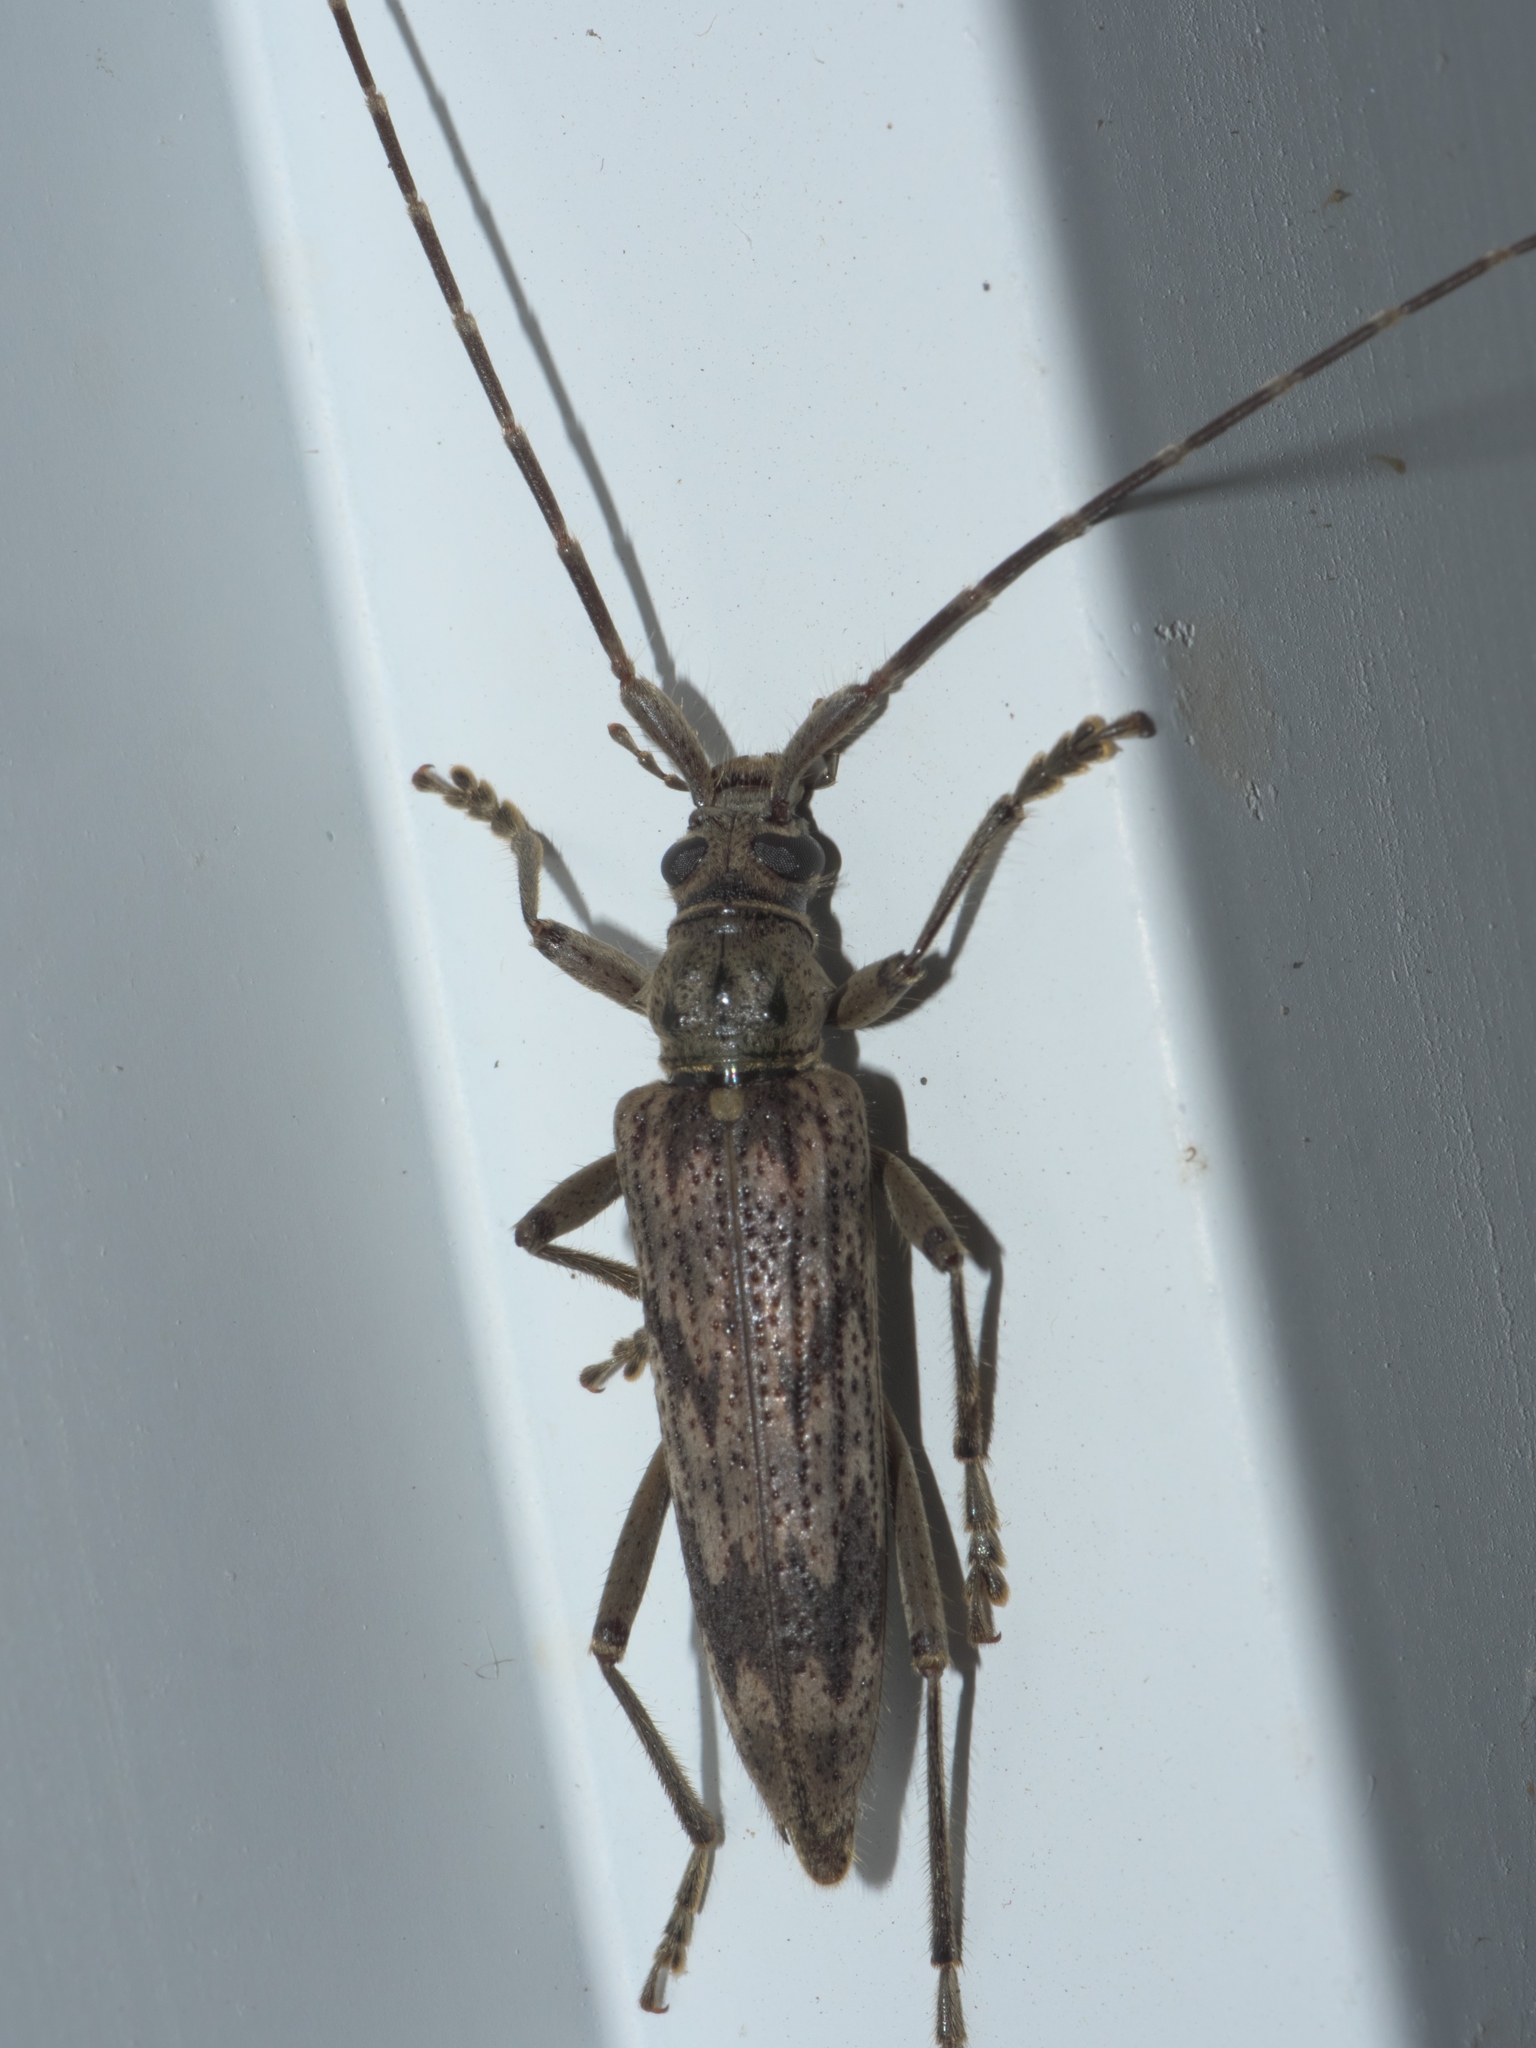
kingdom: Animalia
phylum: Arthropoda
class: Insecta
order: Coleoptera
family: Cerambycidae
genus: Elytrimitatrix
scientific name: Elytrimitatrix undata
